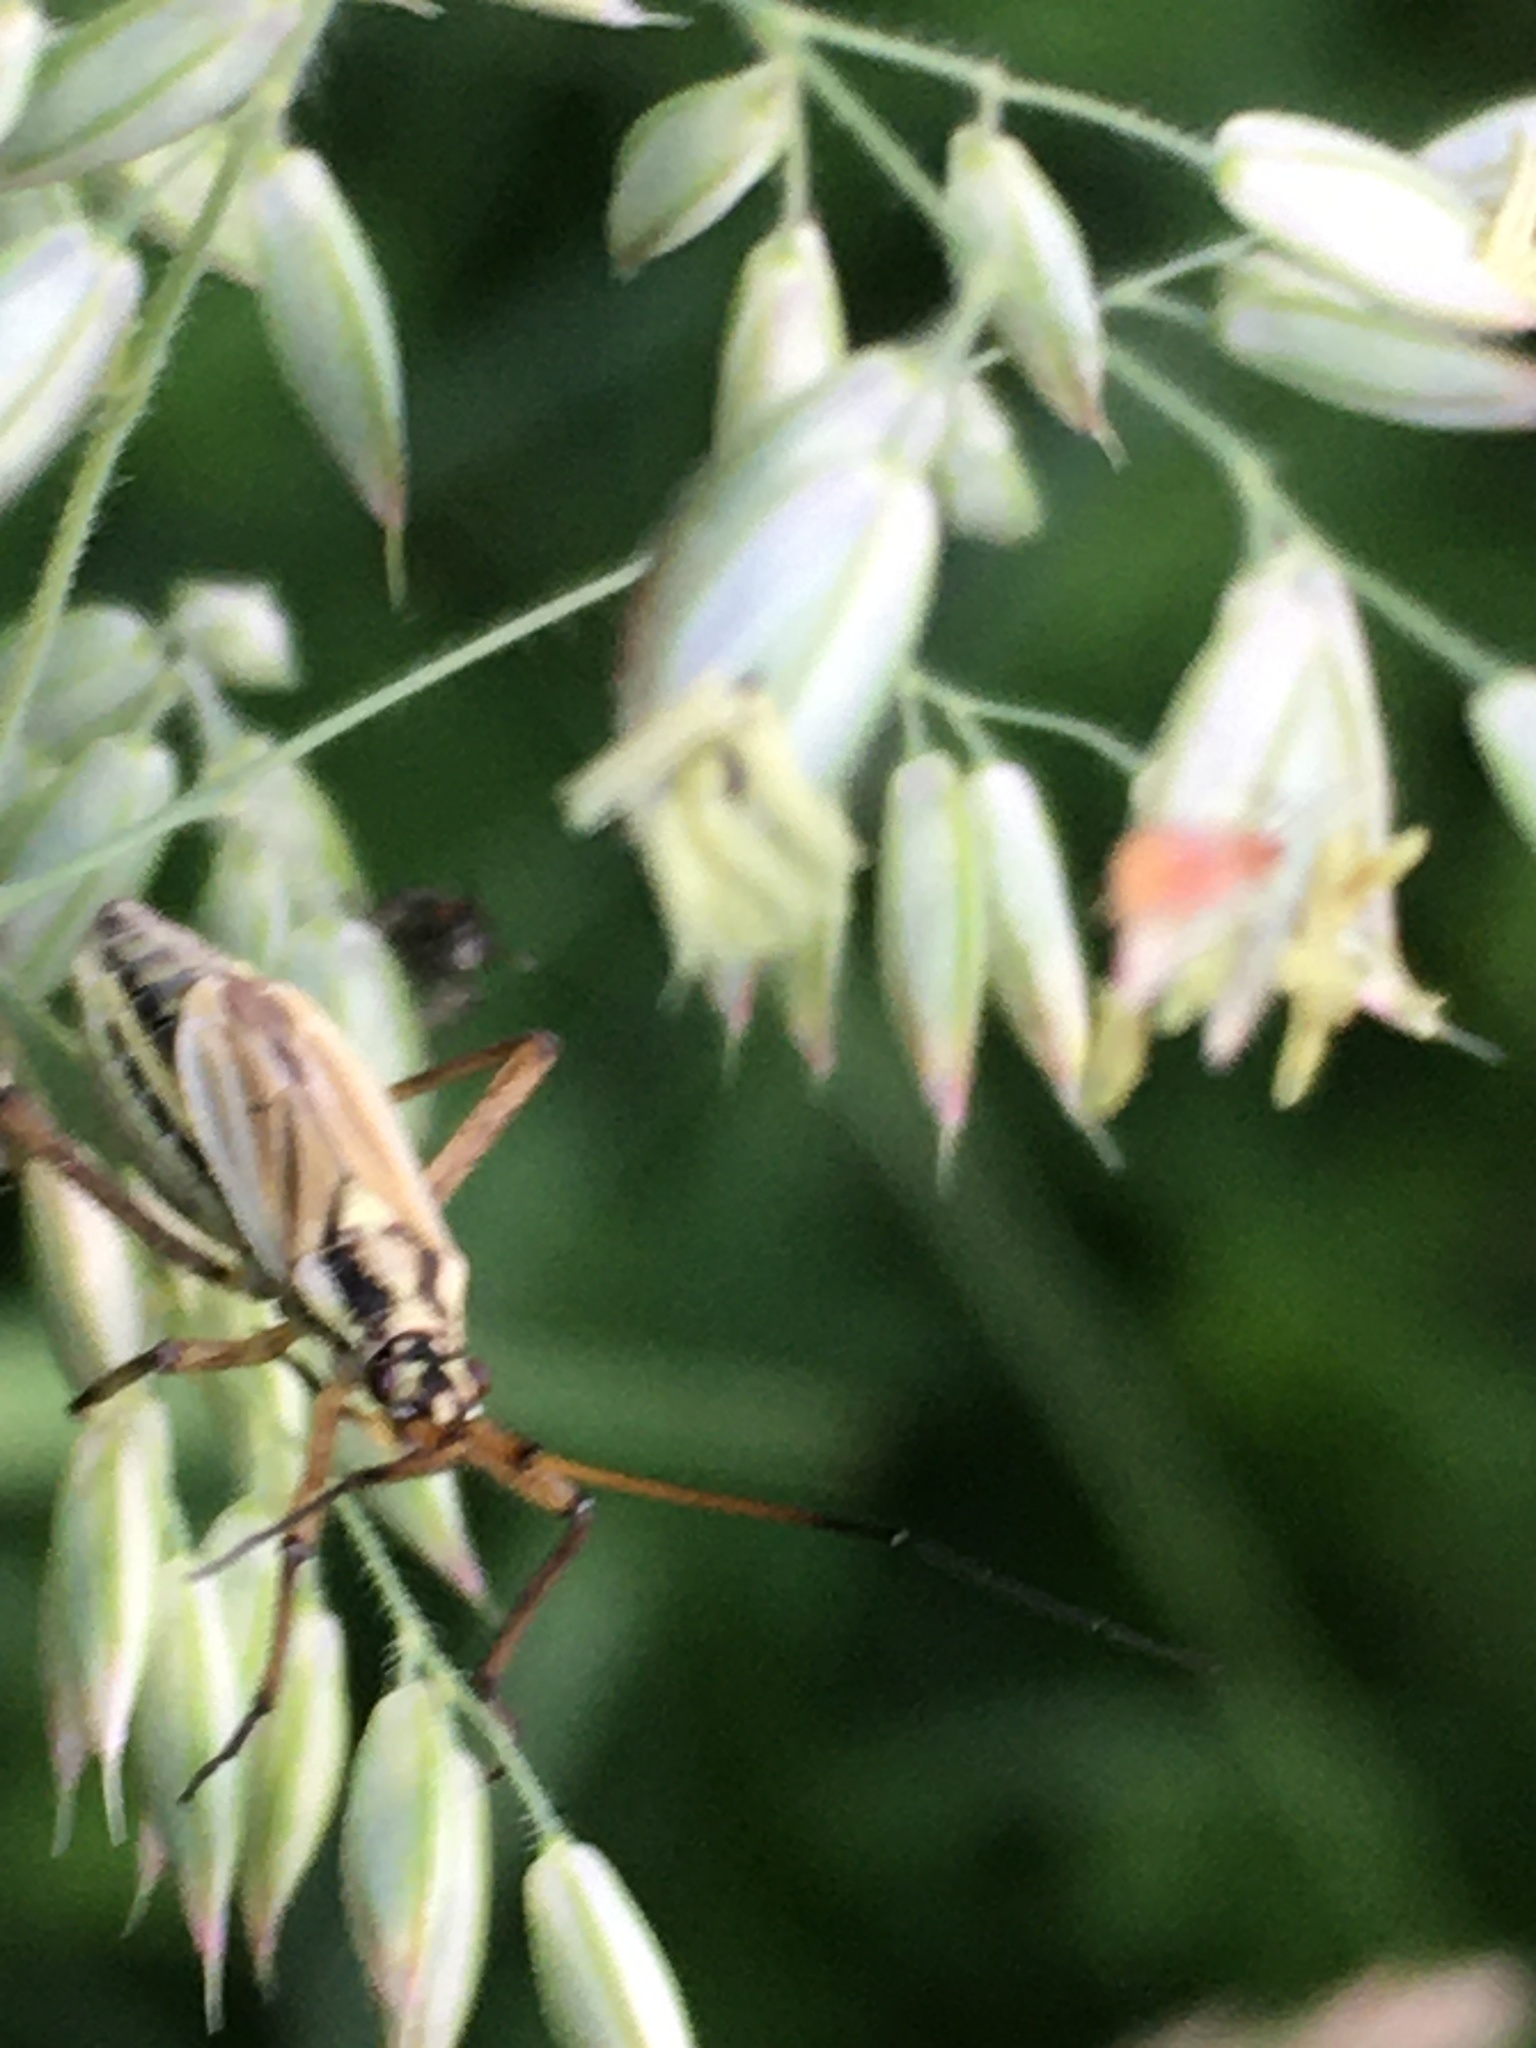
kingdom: Animalia
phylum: Arthropoda
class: Insecta
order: Hemiptera
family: Miridae
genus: Leptopterna
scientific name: Leptopterna dolabrata
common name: Meadow plant bug
